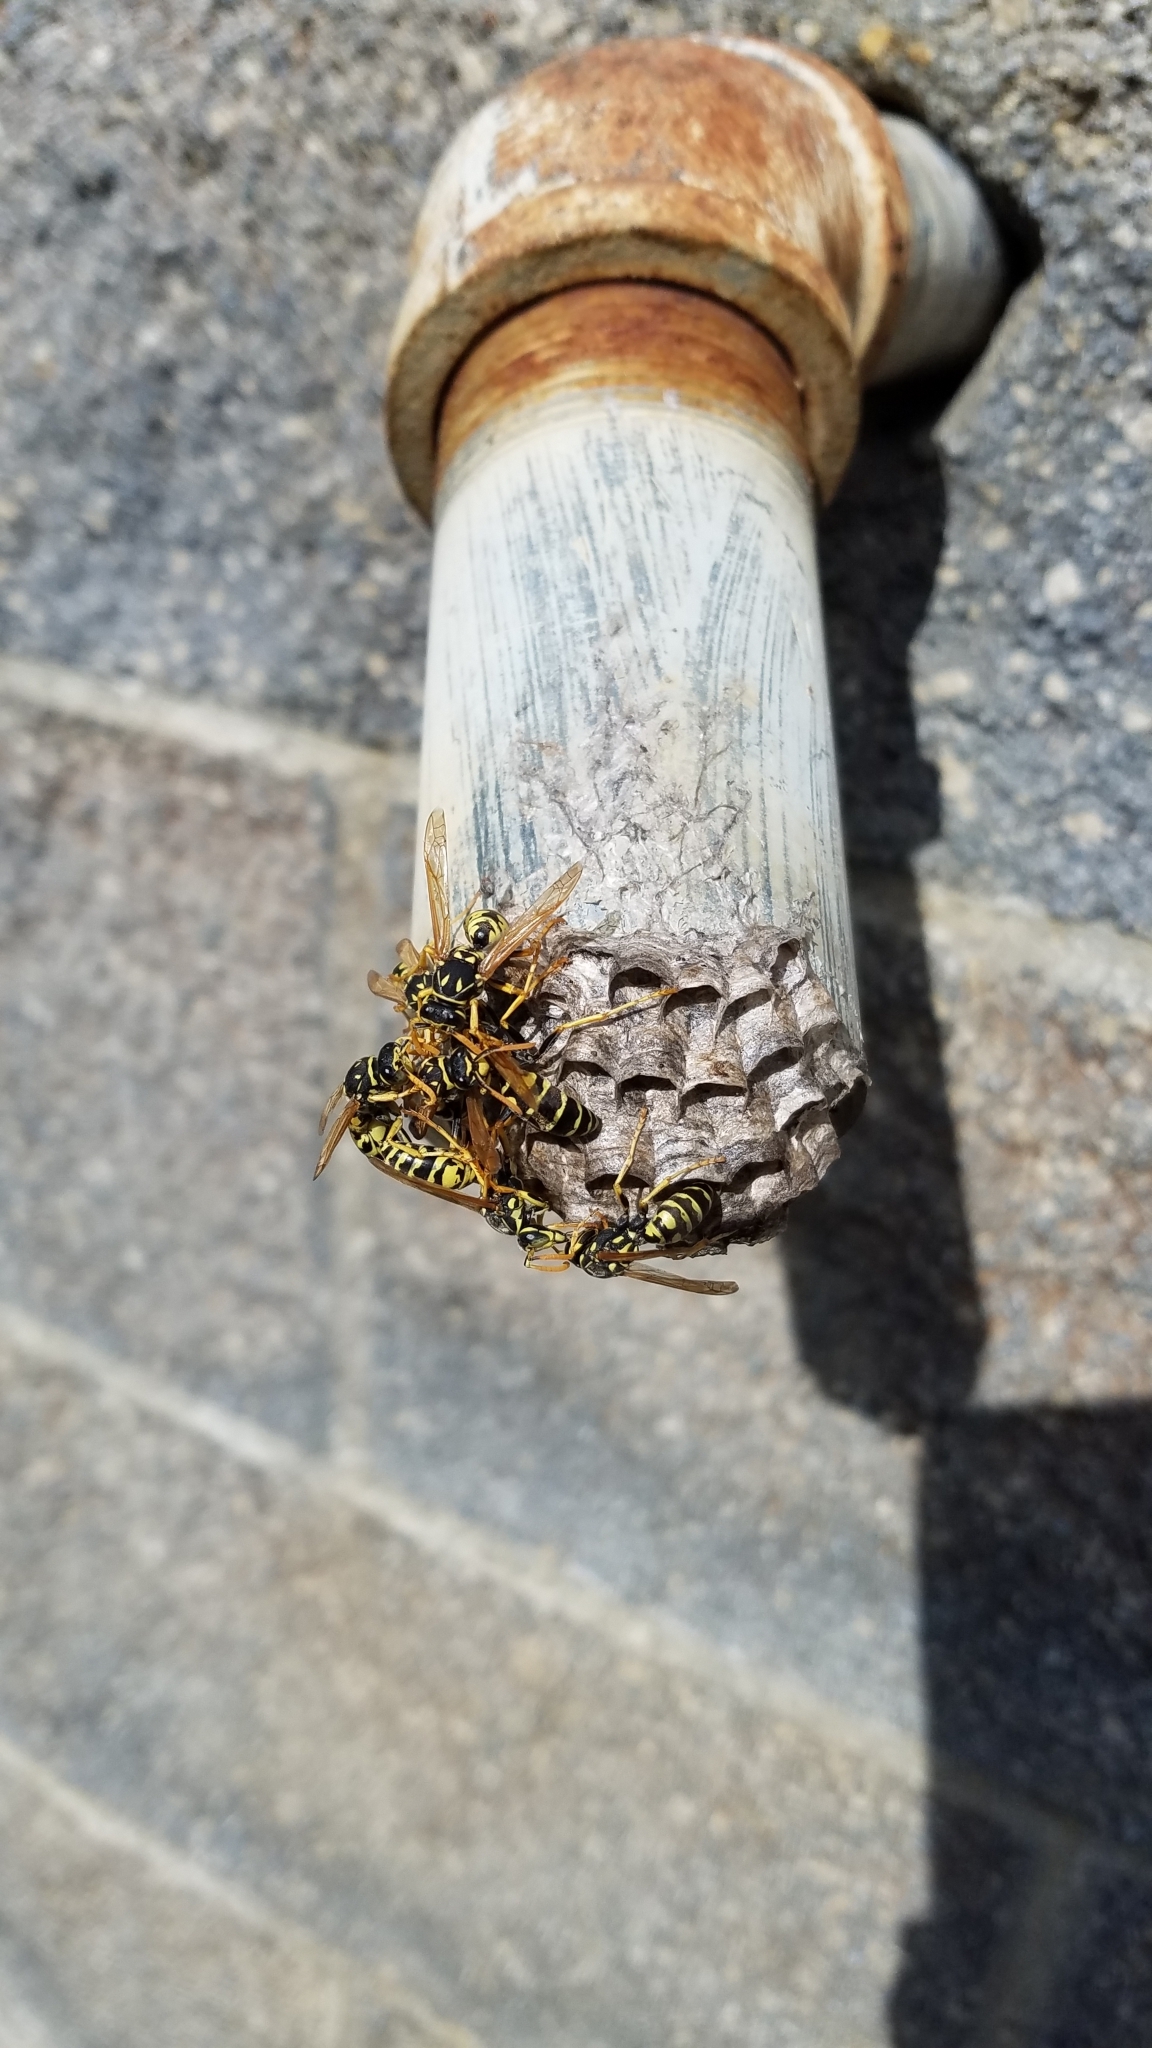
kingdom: Animalia
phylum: Arthropoda
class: Insecta
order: Hymenoptera
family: Eumenidae
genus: Polistes
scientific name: Polistes dominula
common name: Paper wasp
